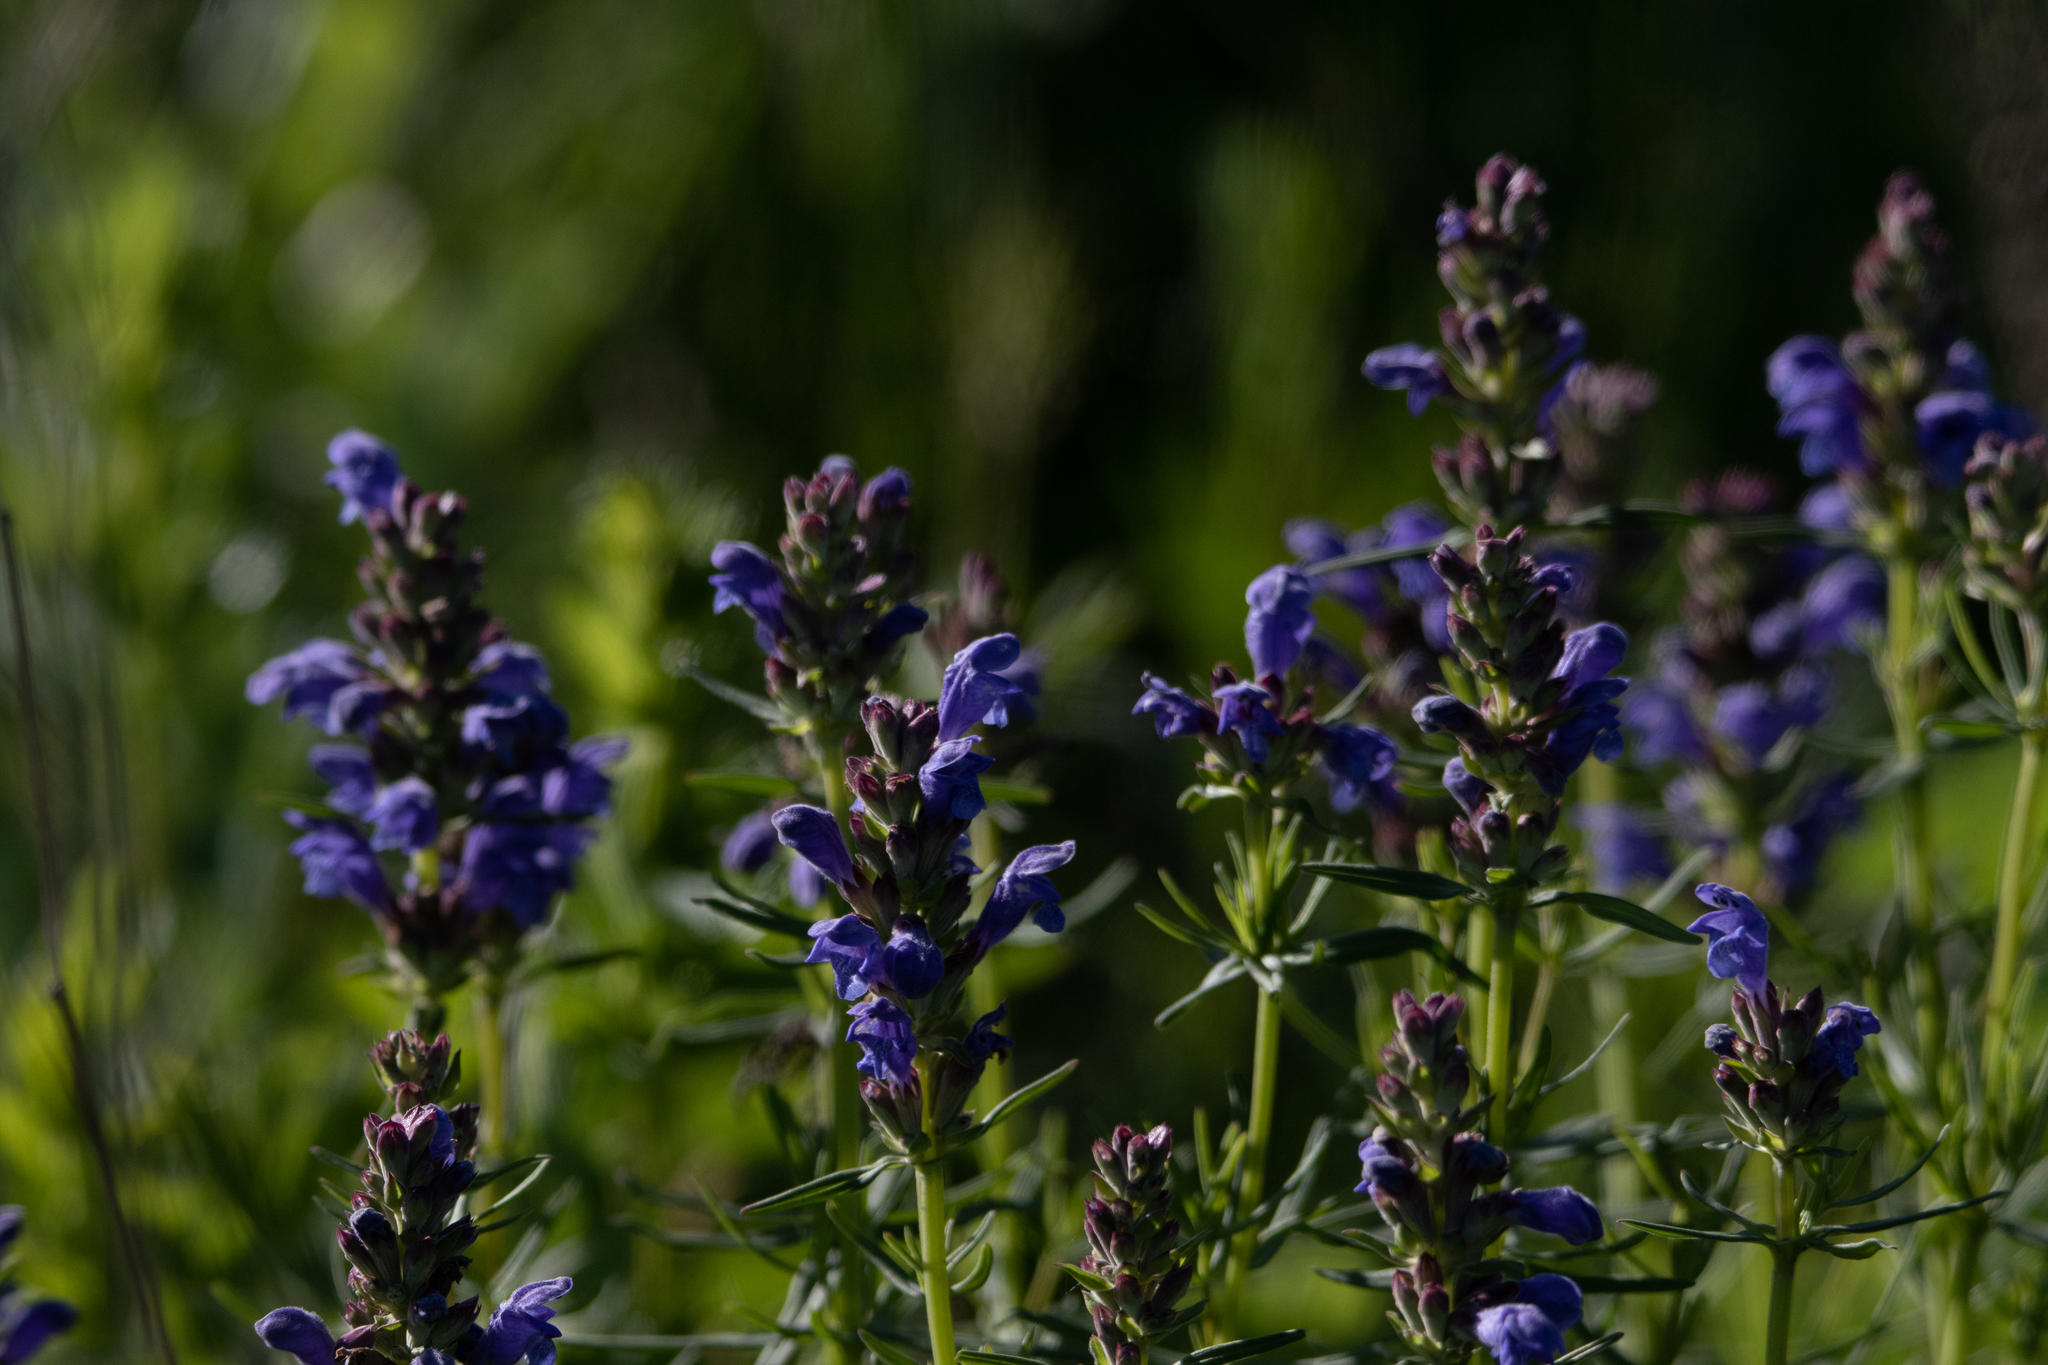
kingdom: Plantae
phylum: Tracheophyta
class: Magnoliopsida
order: Lamiales
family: Lamiaceae
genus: Dracocephalum
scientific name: Dracocephalum ruyschiana
